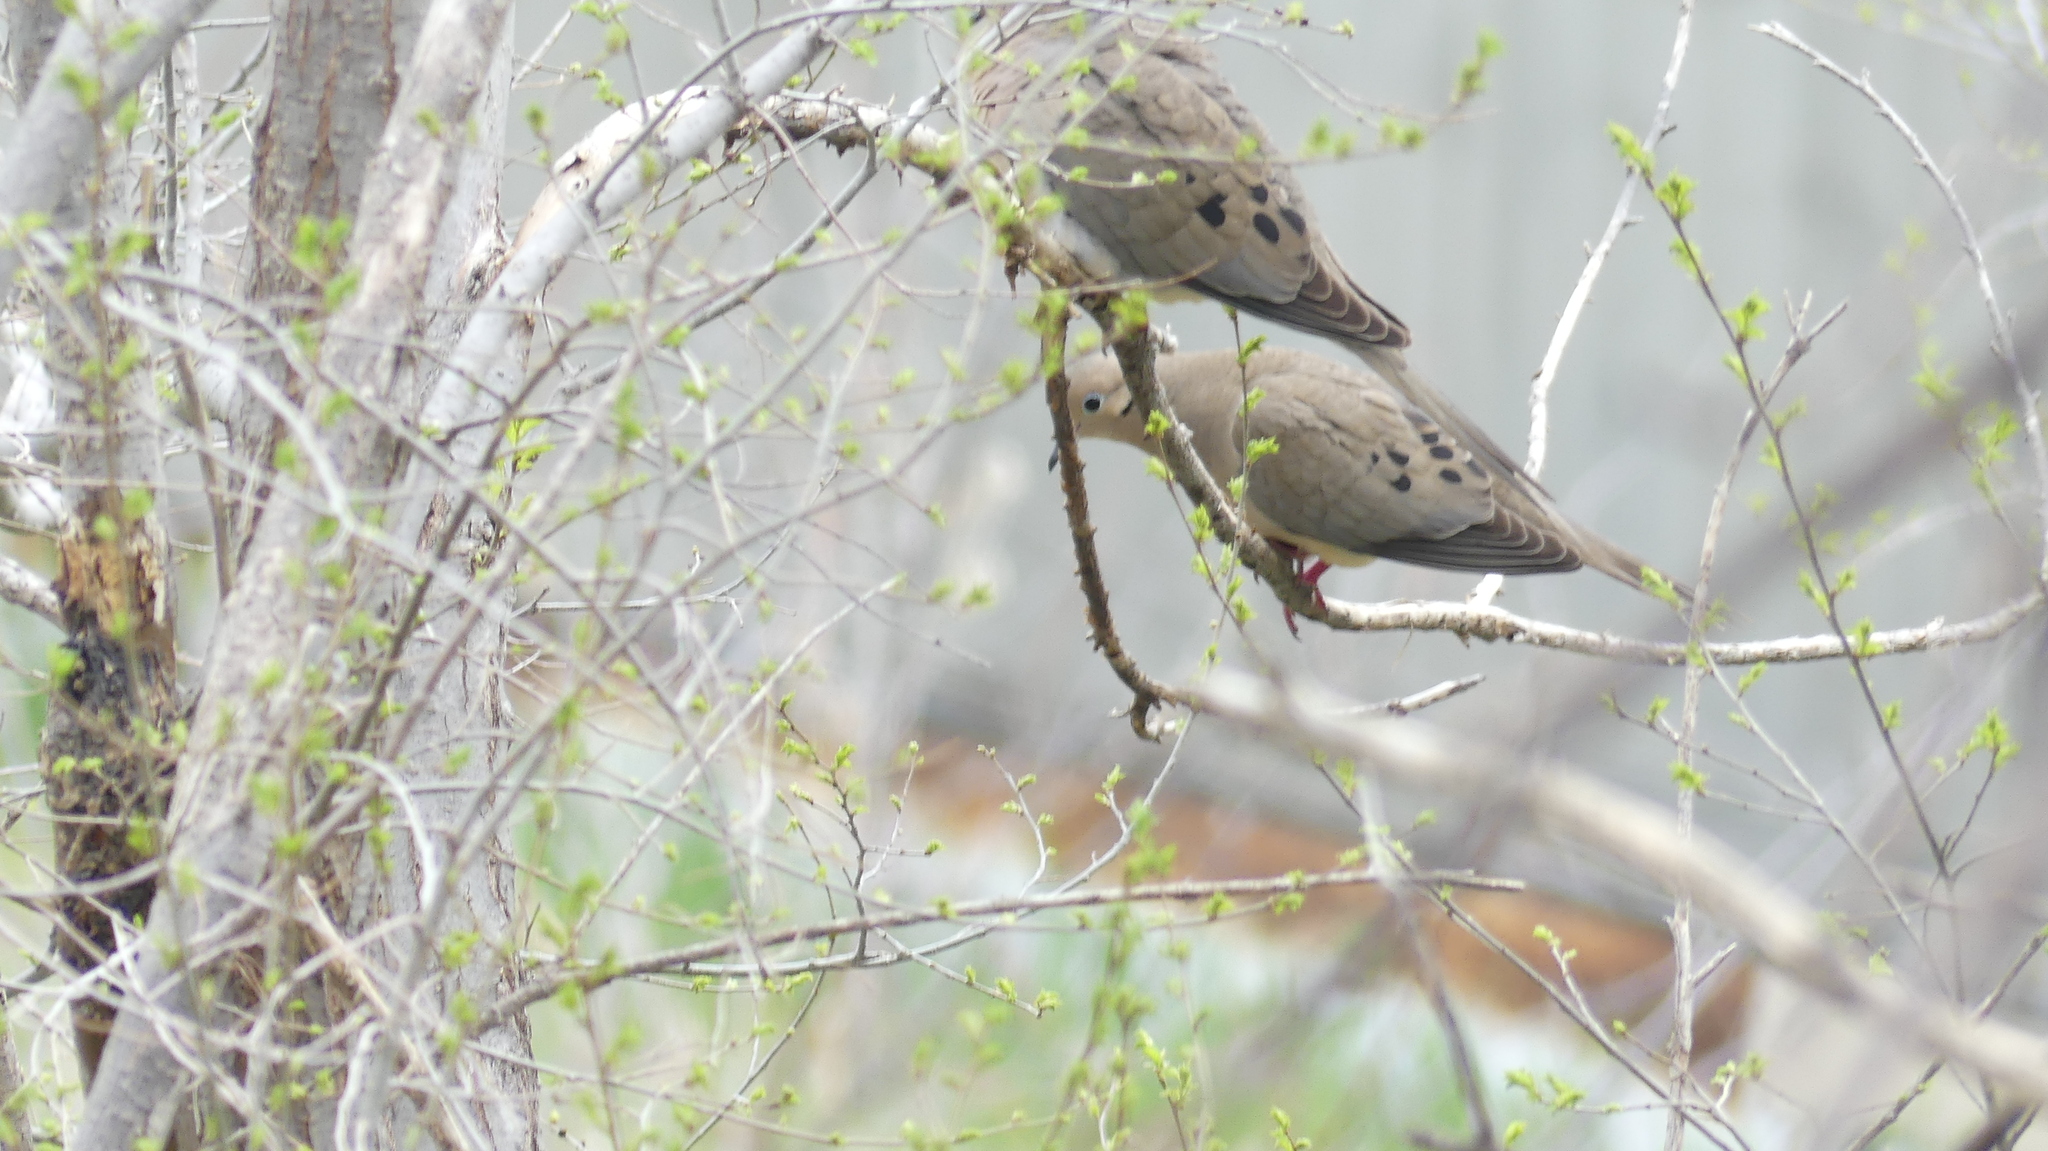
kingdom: Animalia
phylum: Chordata
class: Aves
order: Columbiformes
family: Columbidae
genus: Zenaida
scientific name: Zenaida macroura
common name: Mourning dove
